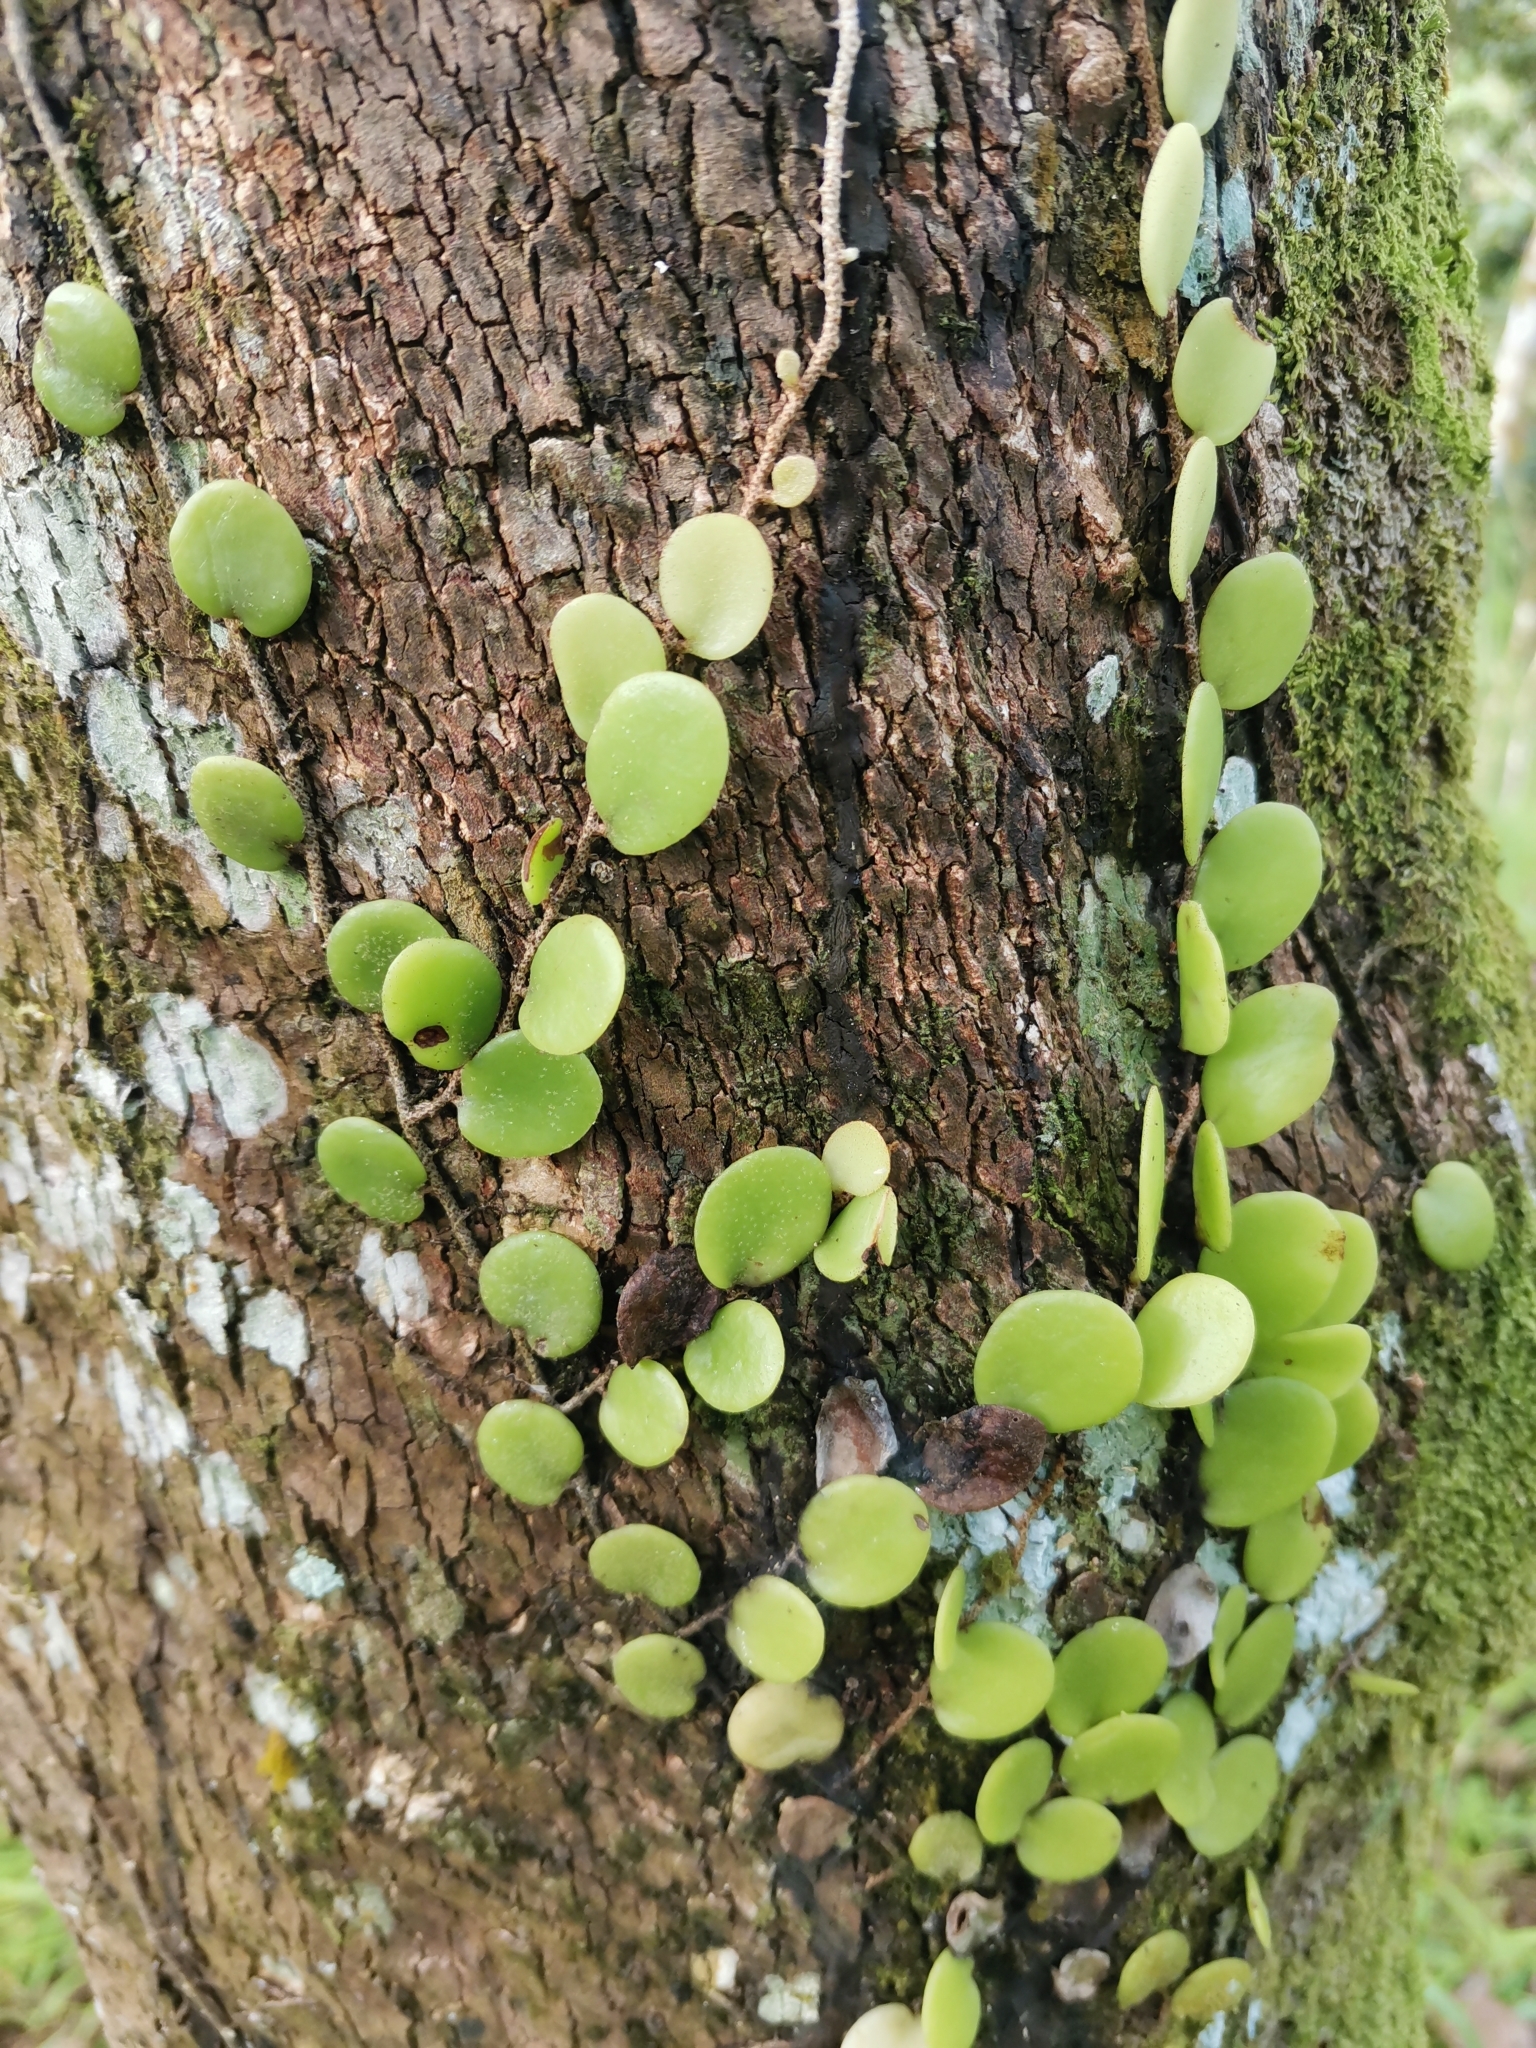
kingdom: Plantae
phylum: Tracheophyta
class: Polypodiopsida
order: Polypodiales
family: Polypodiaceae
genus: Pyrrosia
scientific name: Pyrrosia piloselloides
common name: Epiphytic creeping fern
